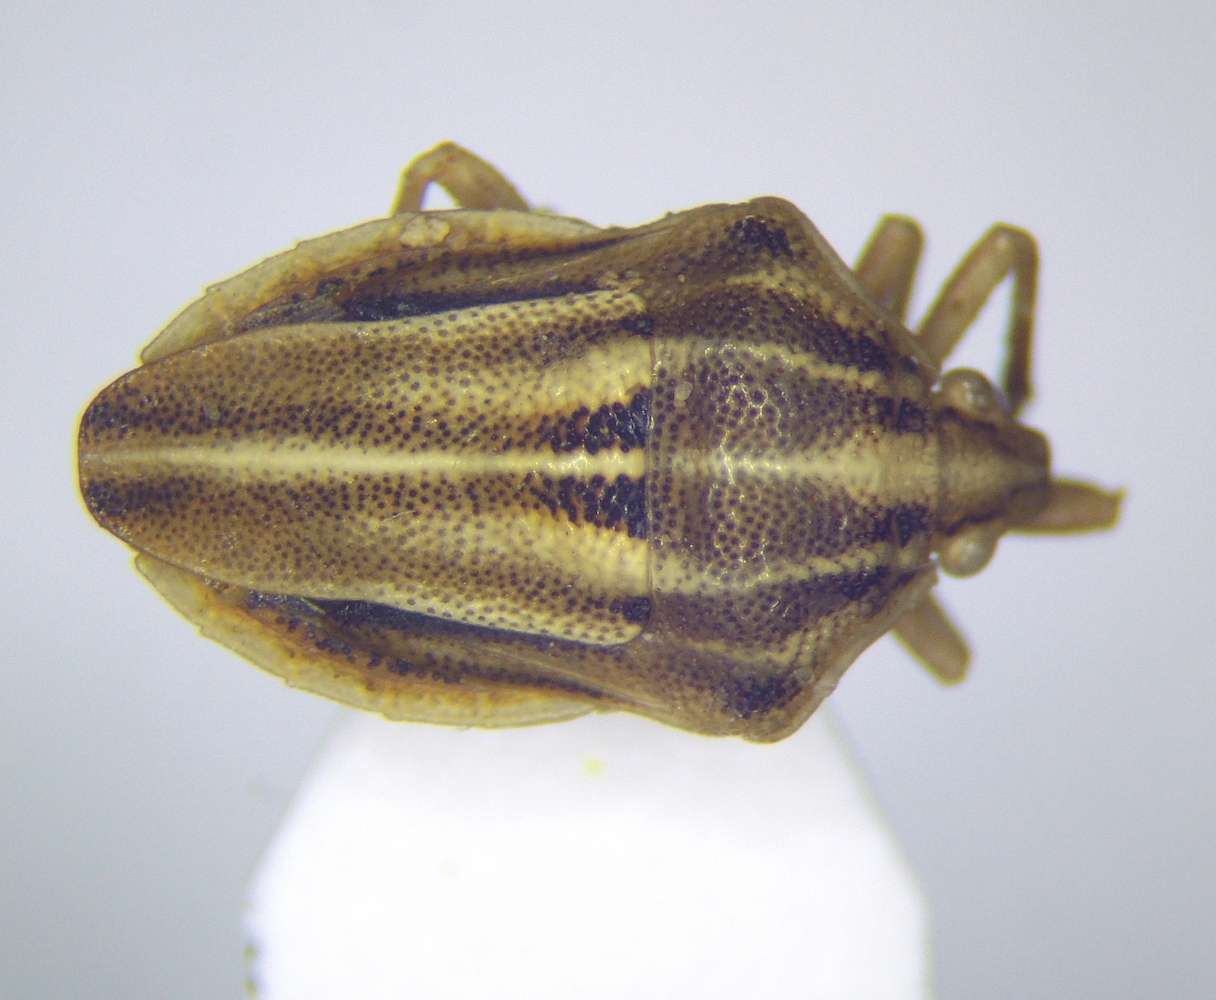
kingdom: Animalia
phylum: Arthropoda
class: Insecta
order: Hemiptera
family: Pentatomidae
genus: Tholagmus
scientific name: Tholagmus flavolineatus
